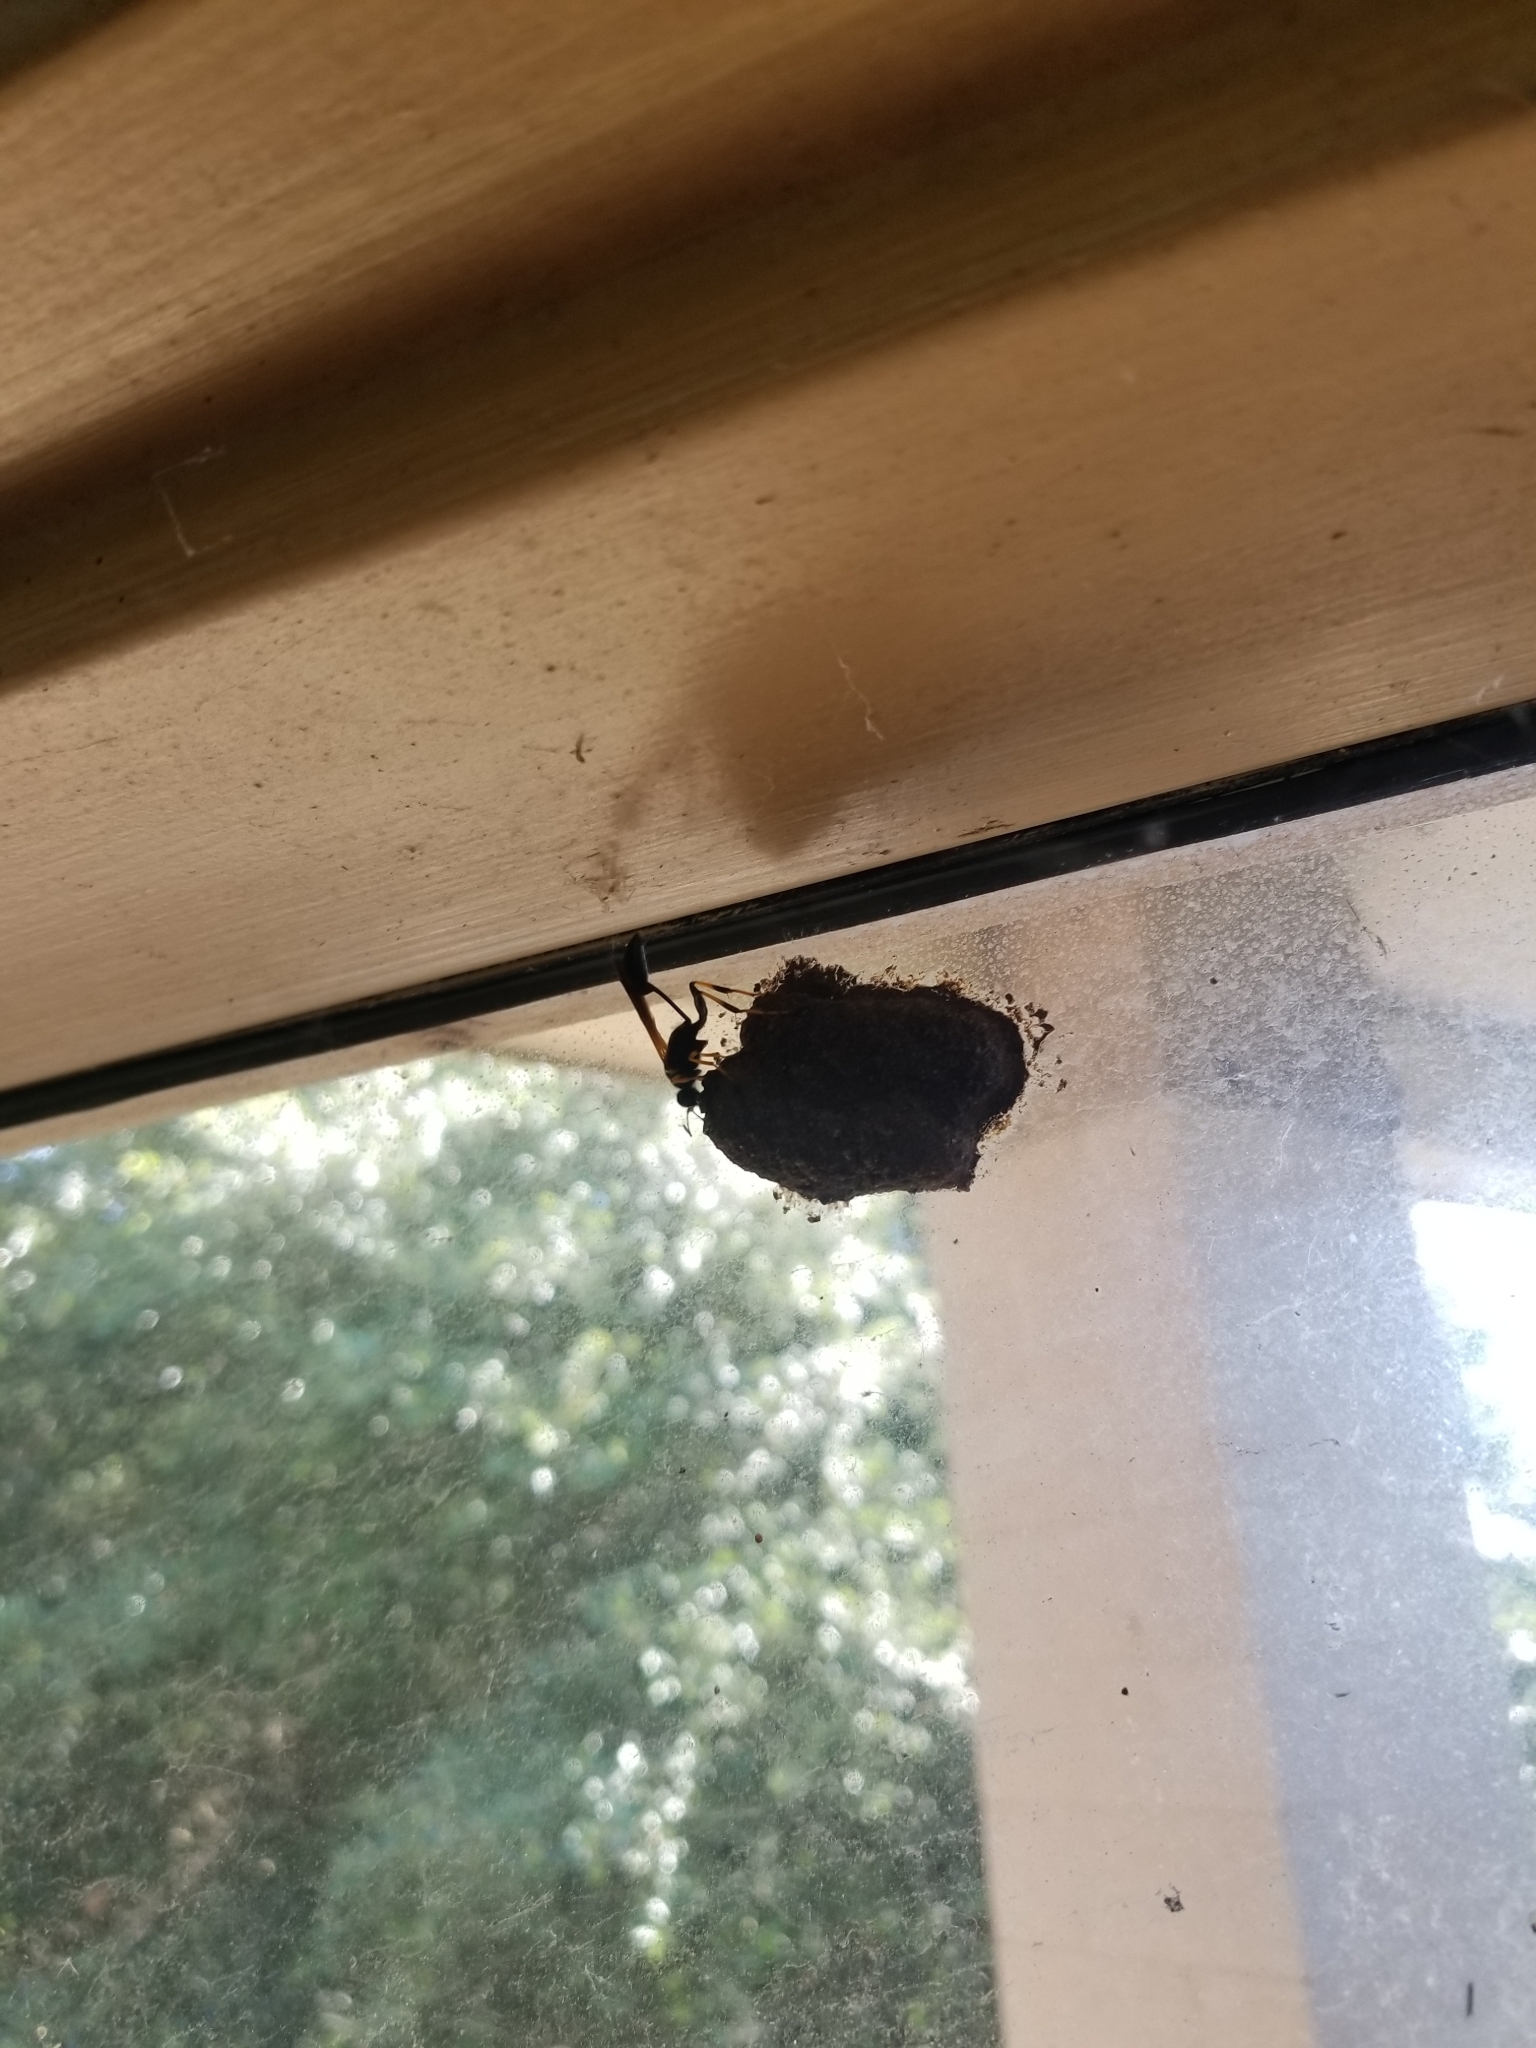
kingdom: Animalia
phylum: Arthropoda
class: Insecta
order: Hymenoptera
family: Sphecidae
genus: Sceliphron
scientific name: Sceliphron caementarium
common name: Mud dauber
